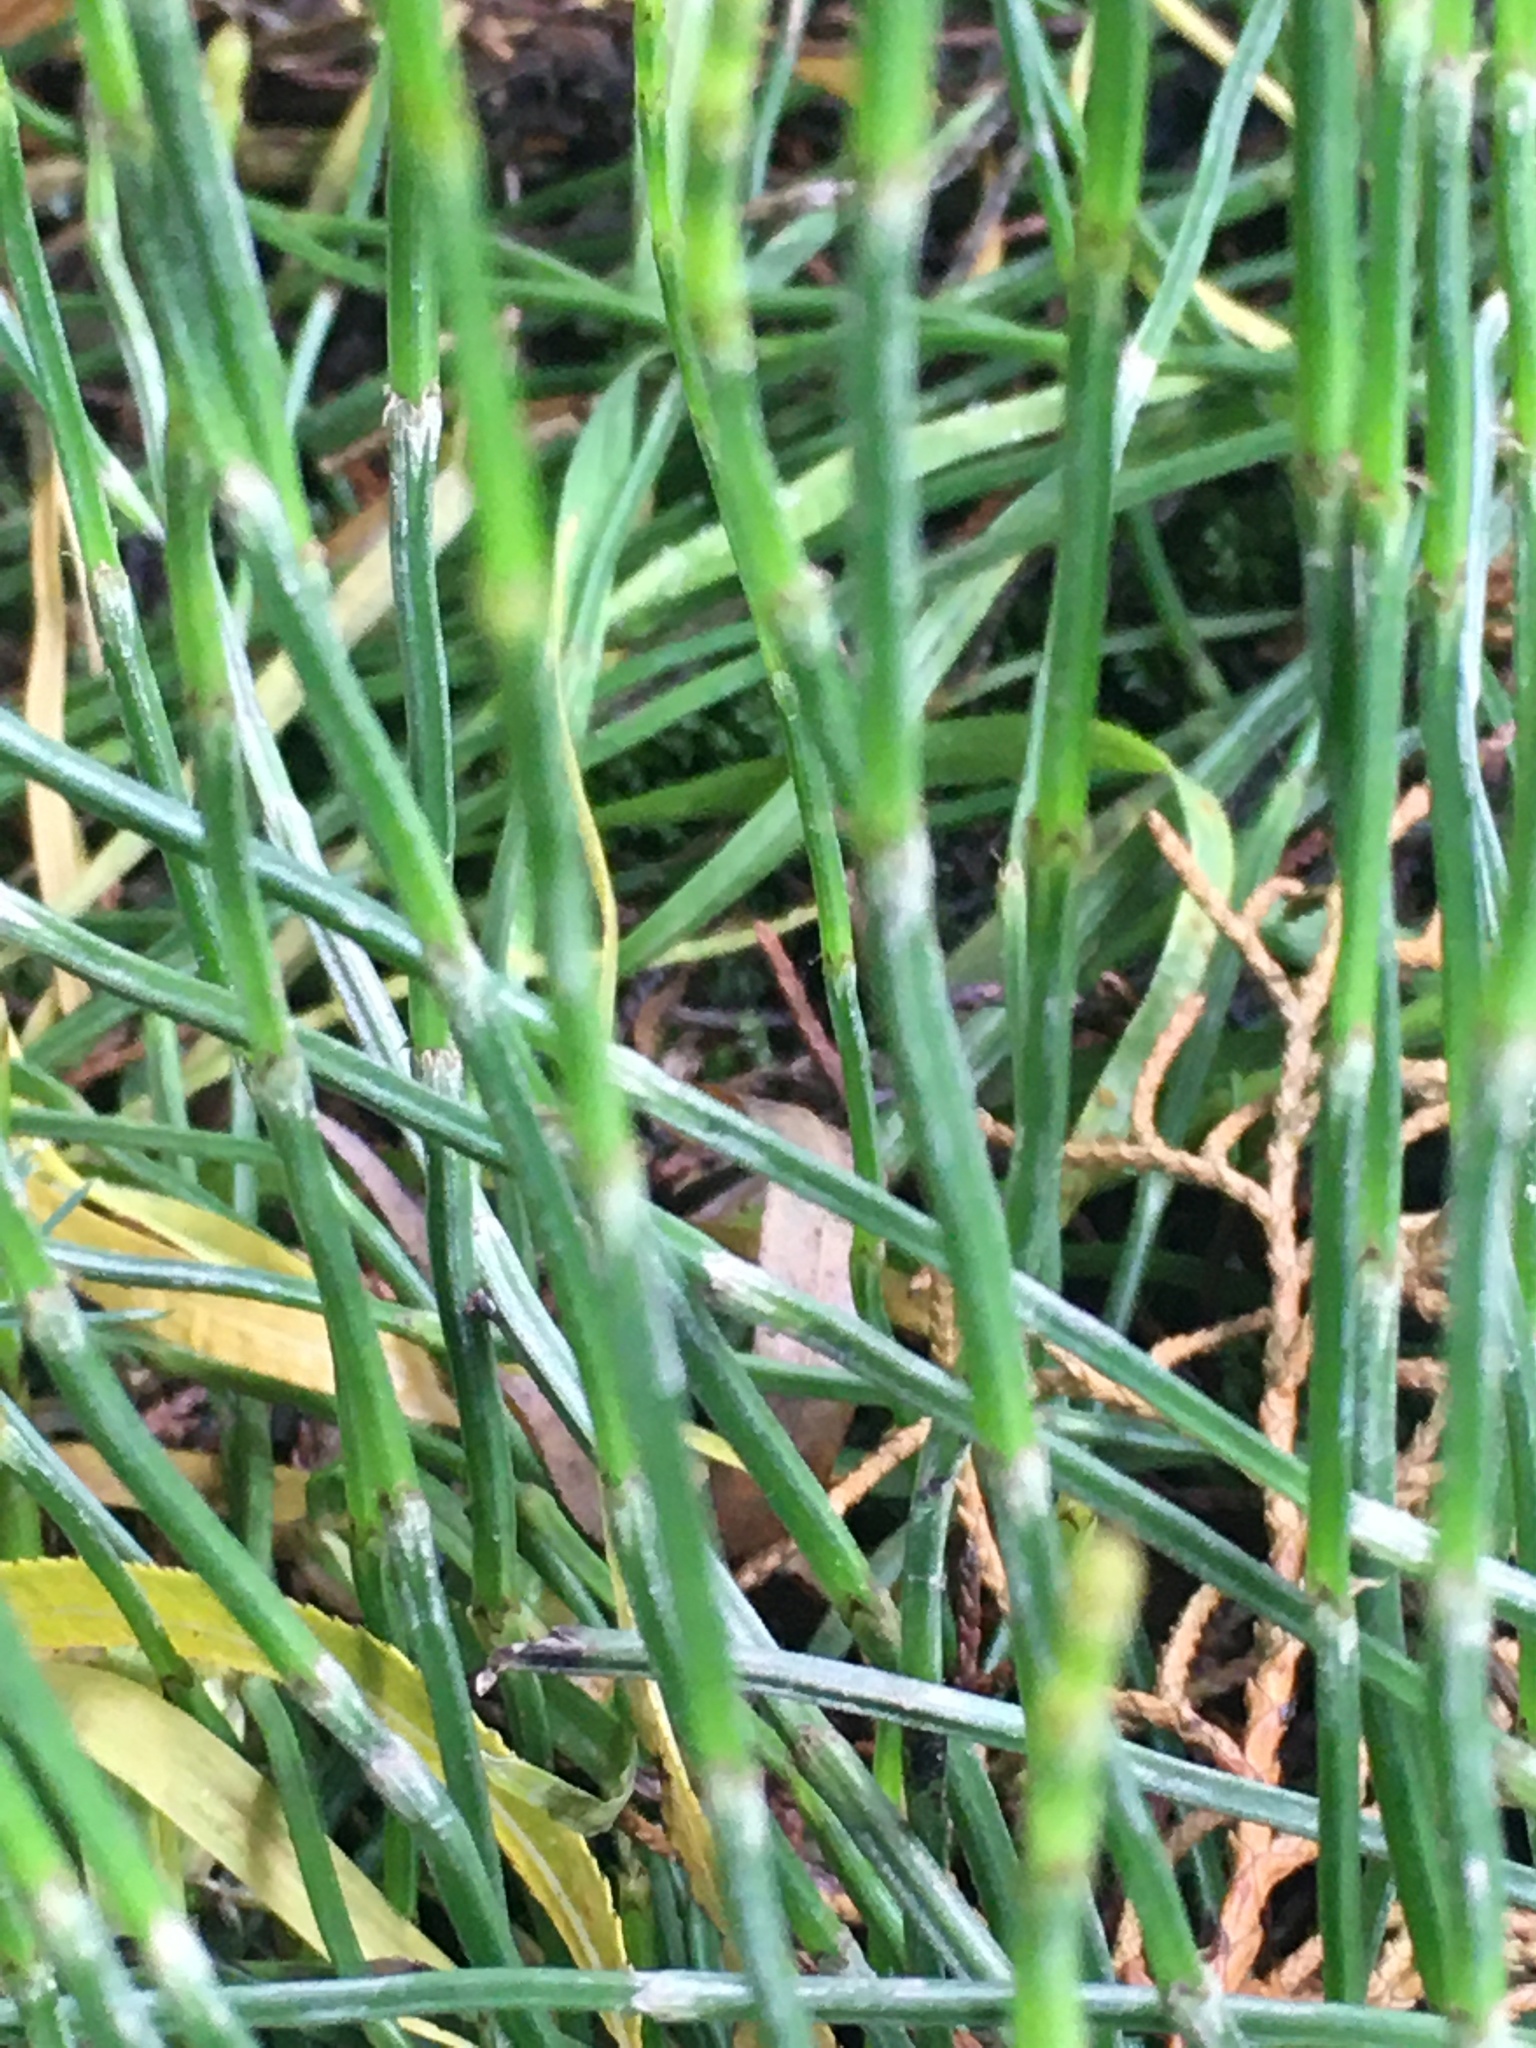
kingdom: Plantae
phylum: Tracheophyta
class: Polypodiopsida
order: Equisetales
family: Equisetaceae
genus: Equisetum
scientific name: Equisetum bogotense
